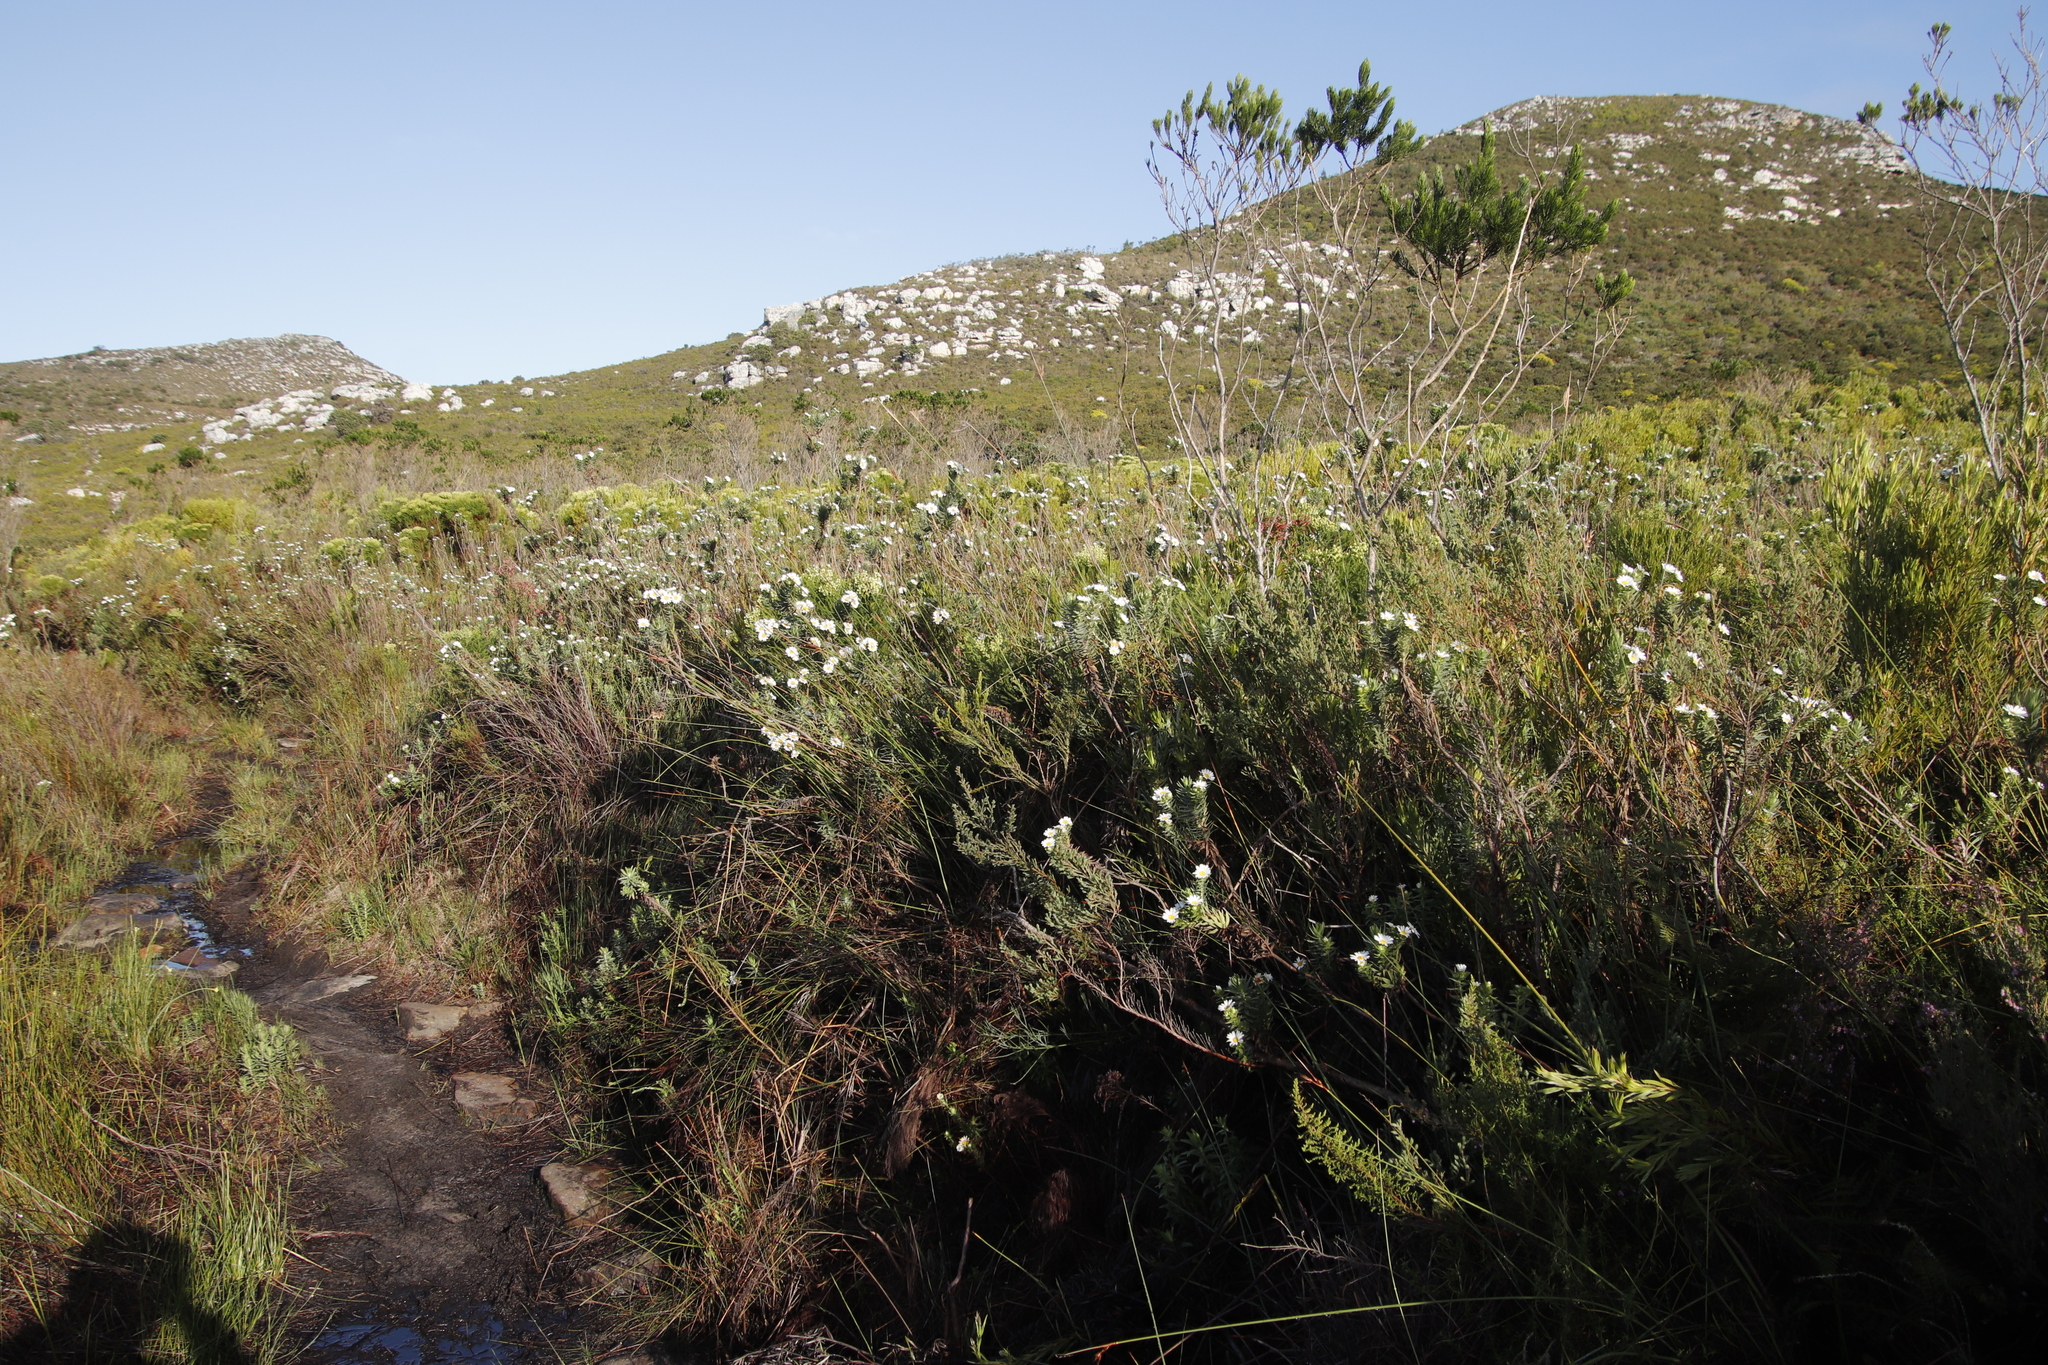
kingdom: Plantae
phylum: Tracheophyta
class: Magnoliopsida
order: Asterales
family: Asteraceae
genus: Osmitopsis
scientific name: Osmitopsis asteriscoides
